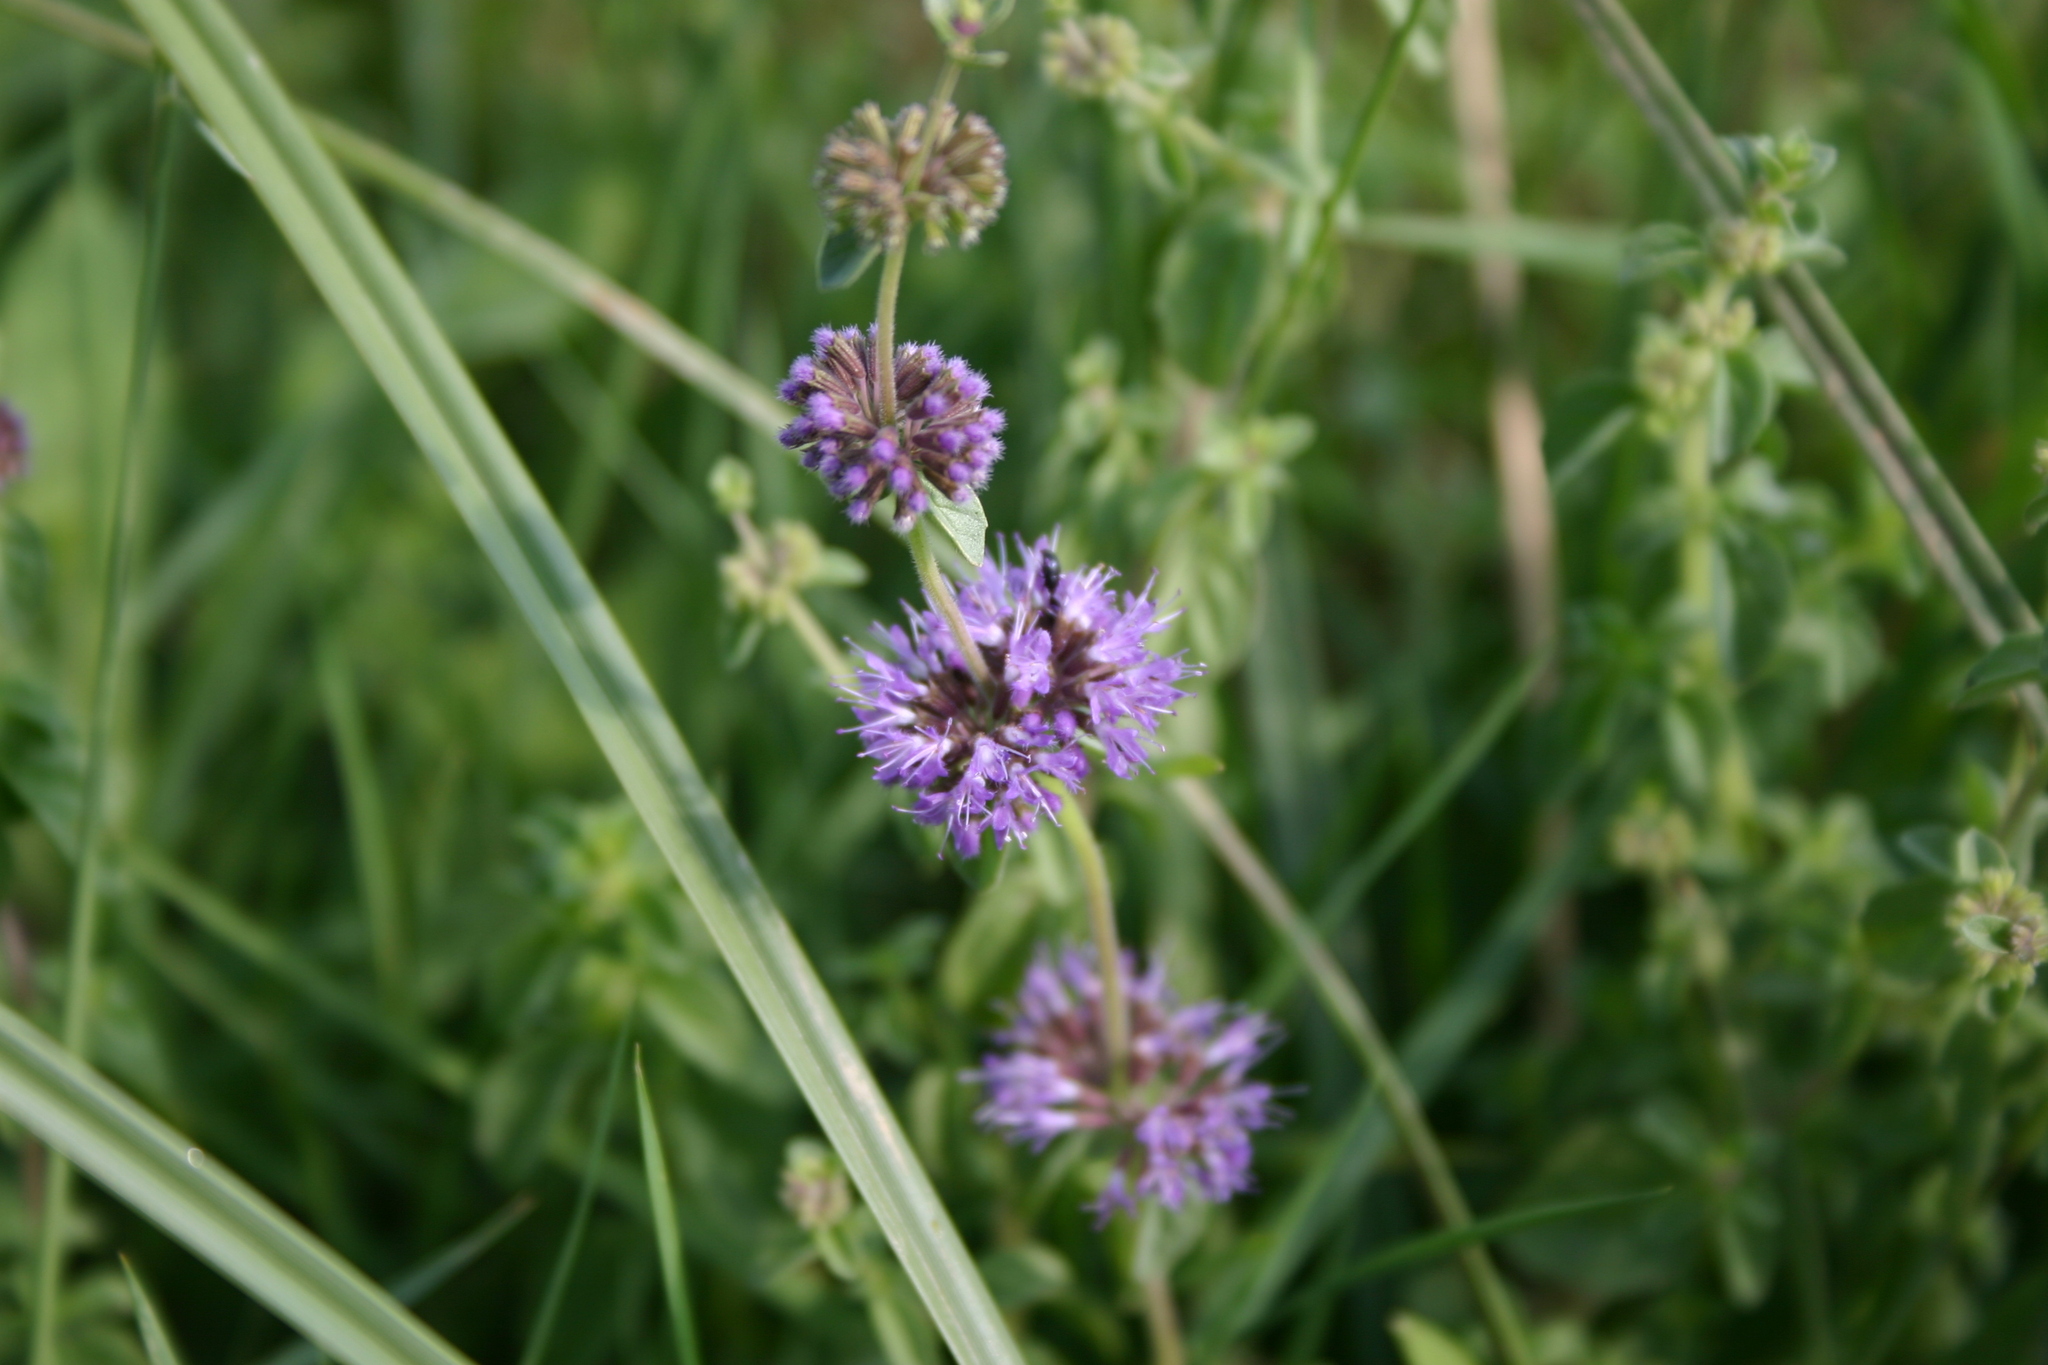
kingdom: Plantae
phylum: Tracheophyta
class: Magnoliopsida
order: Lamiales
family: Lamiaceae
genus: Mentha
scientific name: Mentha pulegium
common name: Pennyroyal
